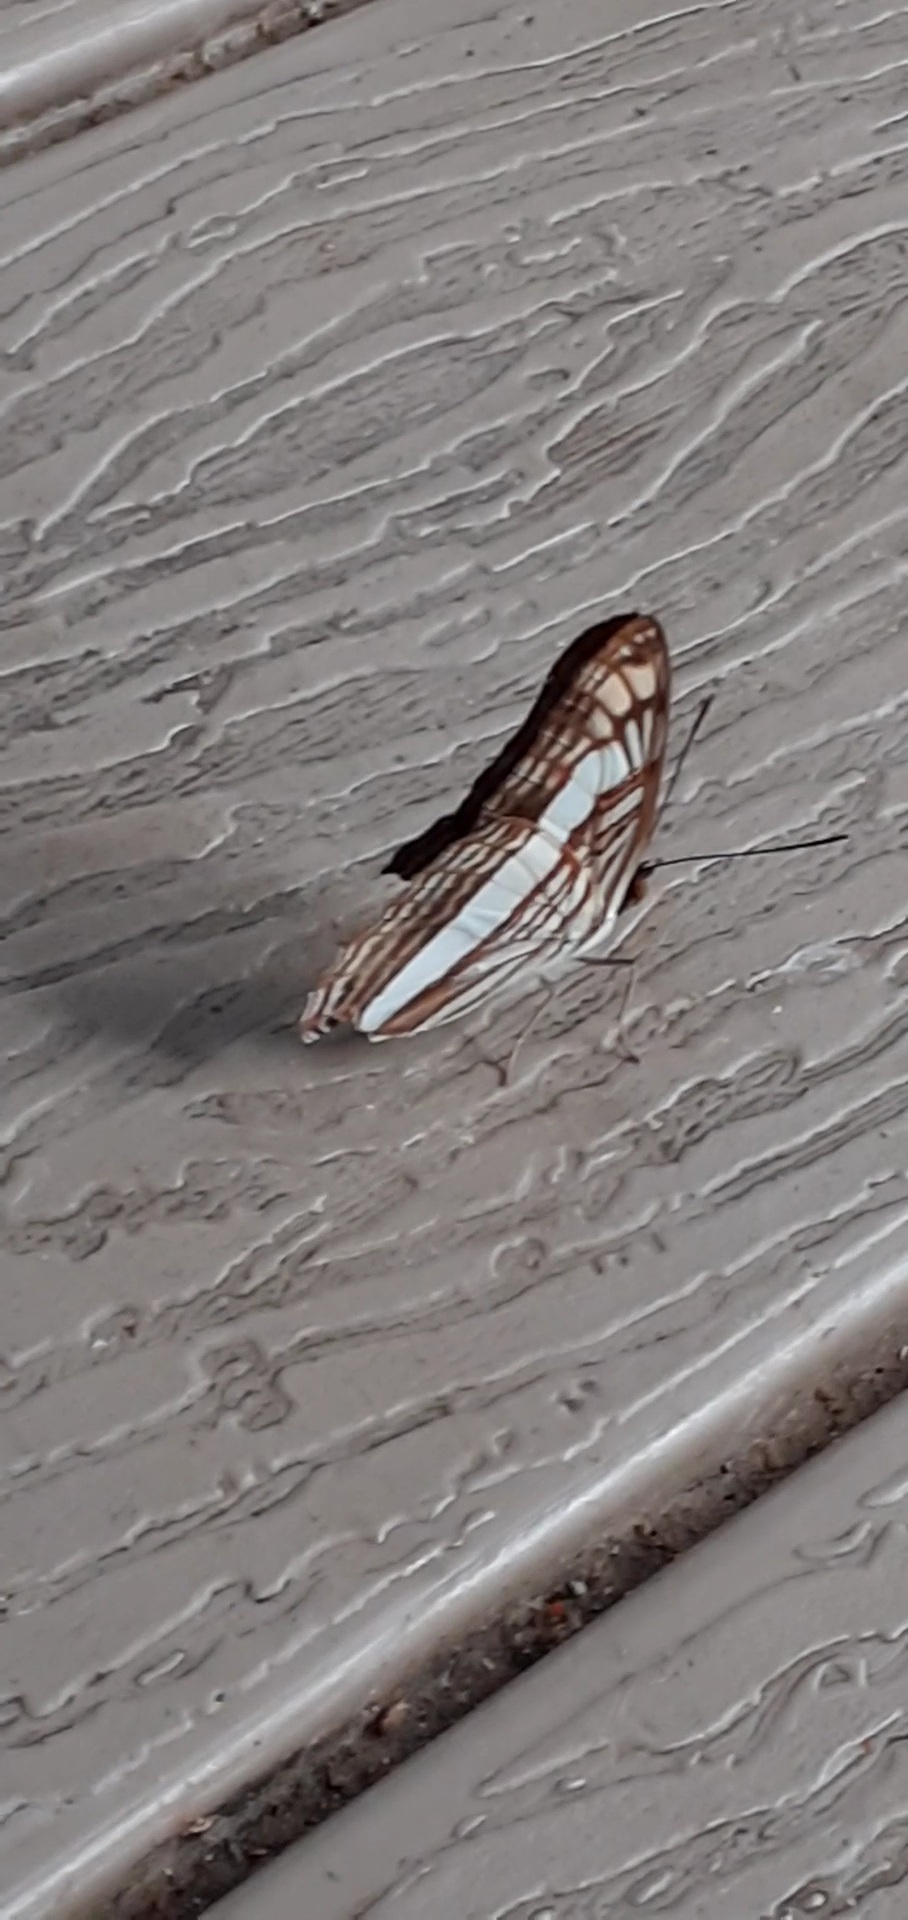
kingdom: Animalia
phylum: Arthropoda
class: Insecta
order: Lepidoptera
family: Nymphalidae
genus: Limenitis
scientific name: Limenitis Adelpha basiloides
